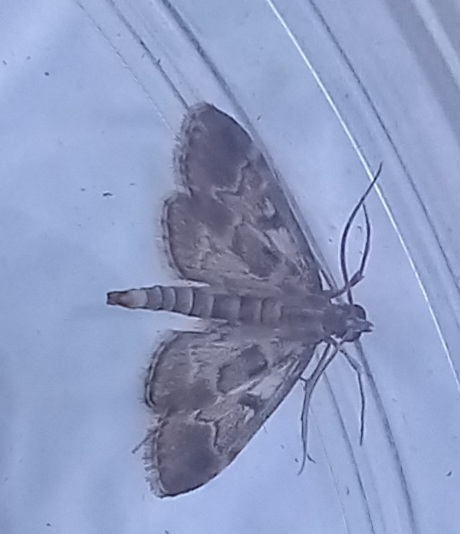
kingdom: Animalia
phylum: Arthropoda
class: Insecta
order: Lepidoptera
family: Crambidae
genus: Duponchelia
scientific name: Duponchelia fovealis
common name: Crambid moth
